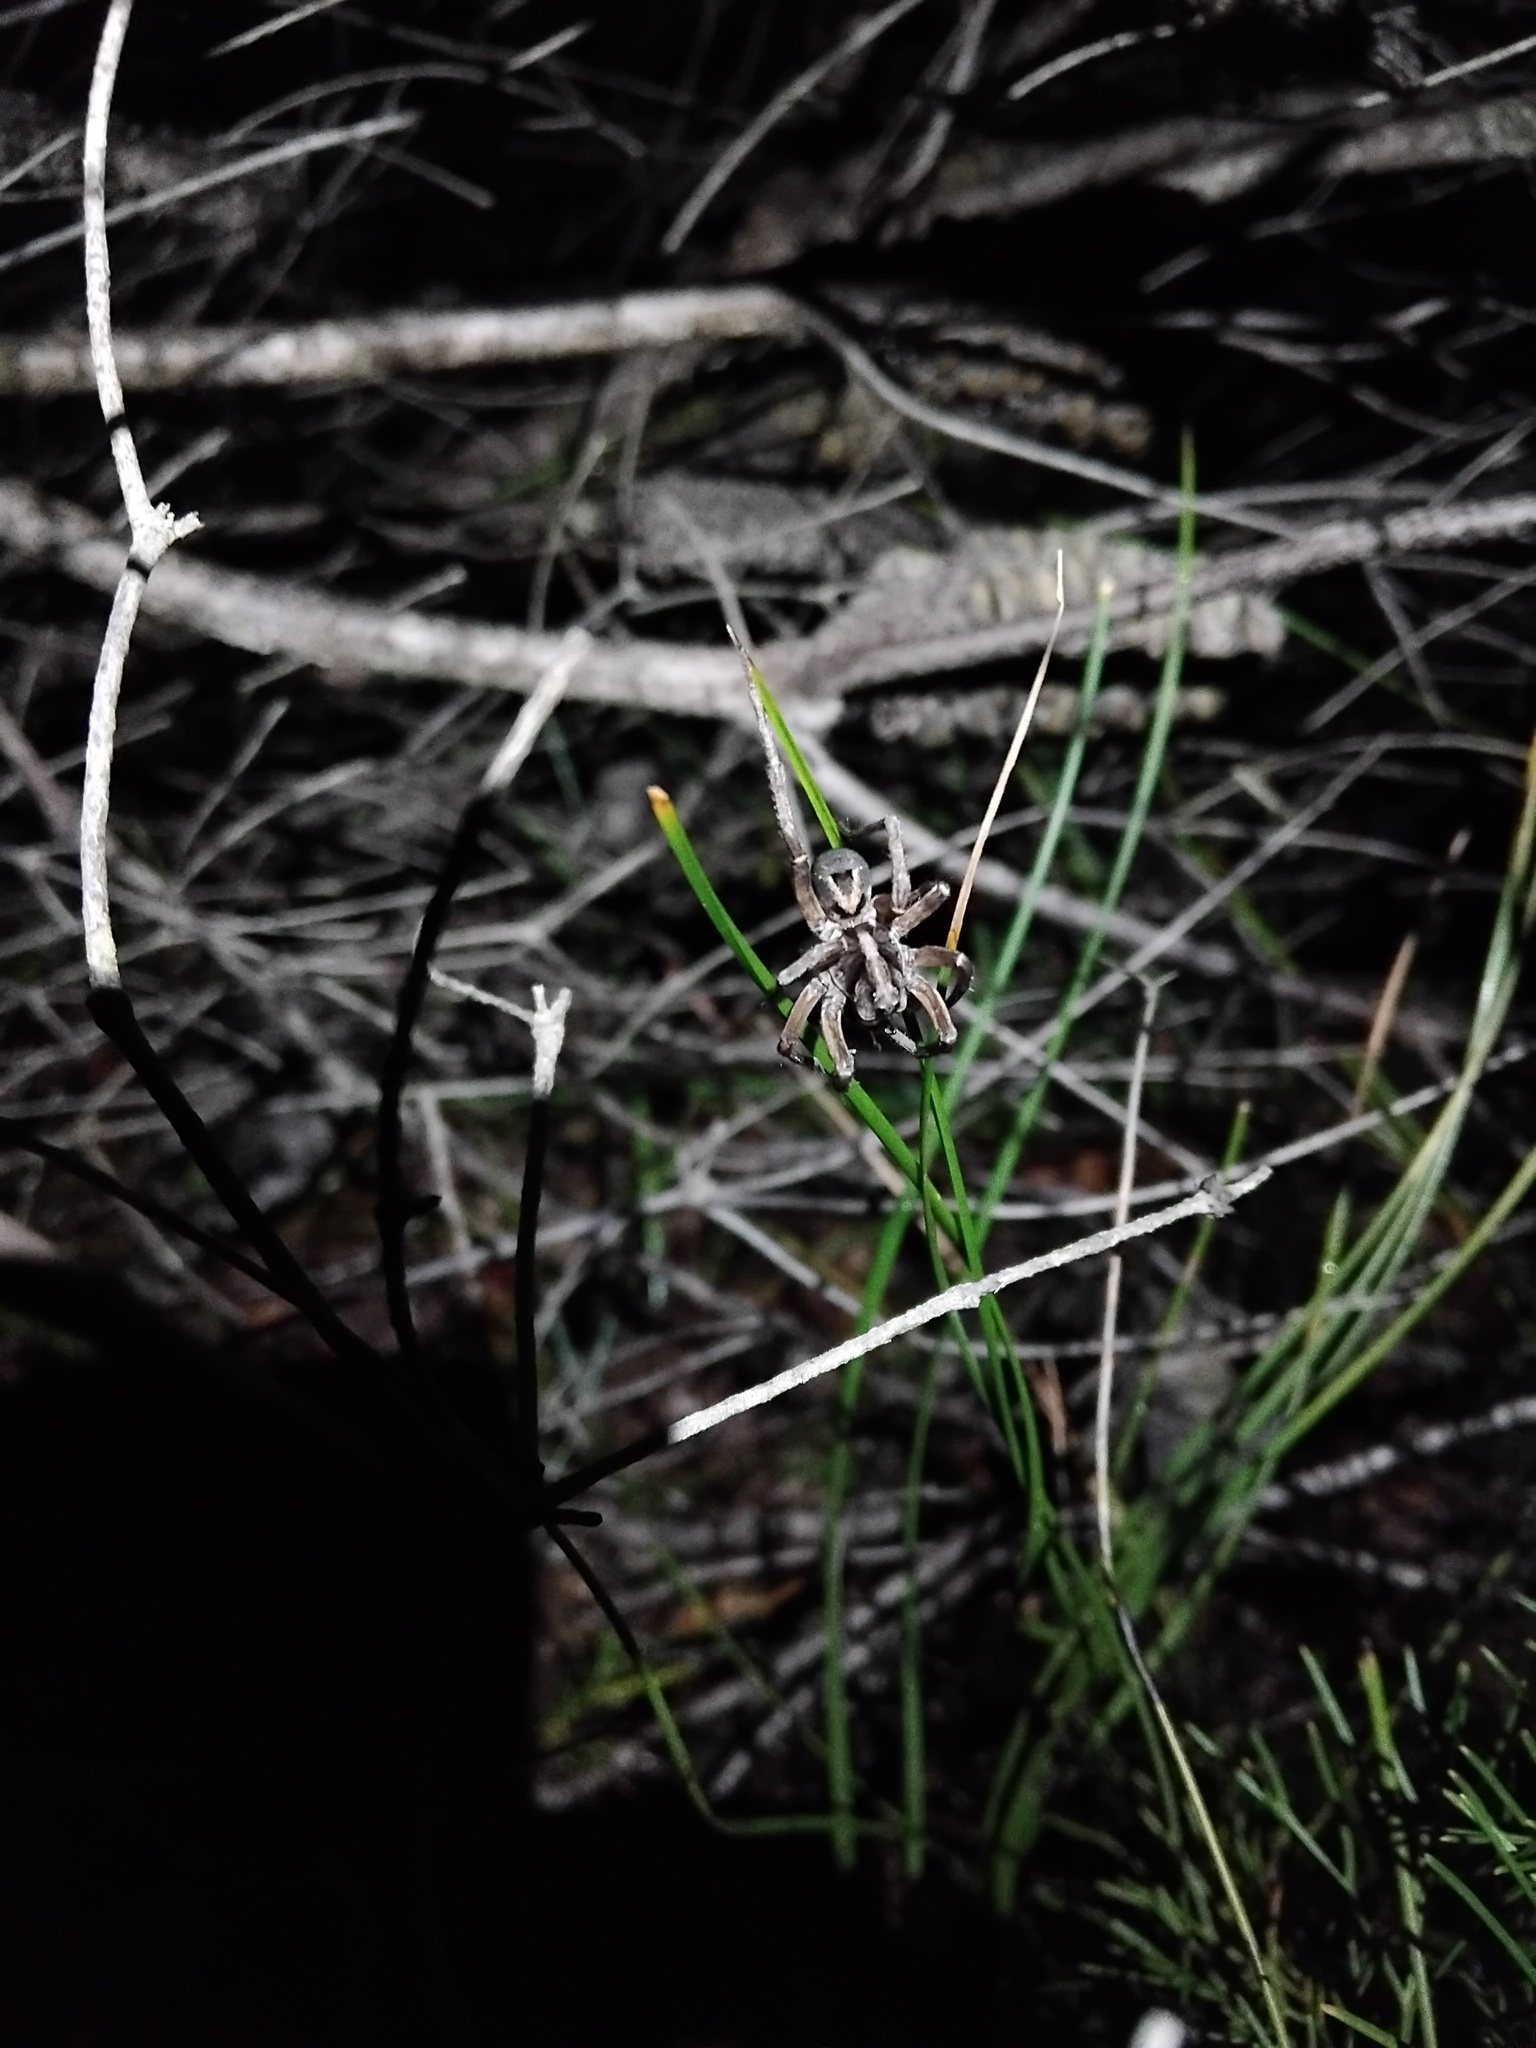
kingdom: Animalia
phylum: Arthropoda
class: Arachnida
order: Araneae
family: Lycosidae
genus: Venator
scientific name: Venator spenceri
